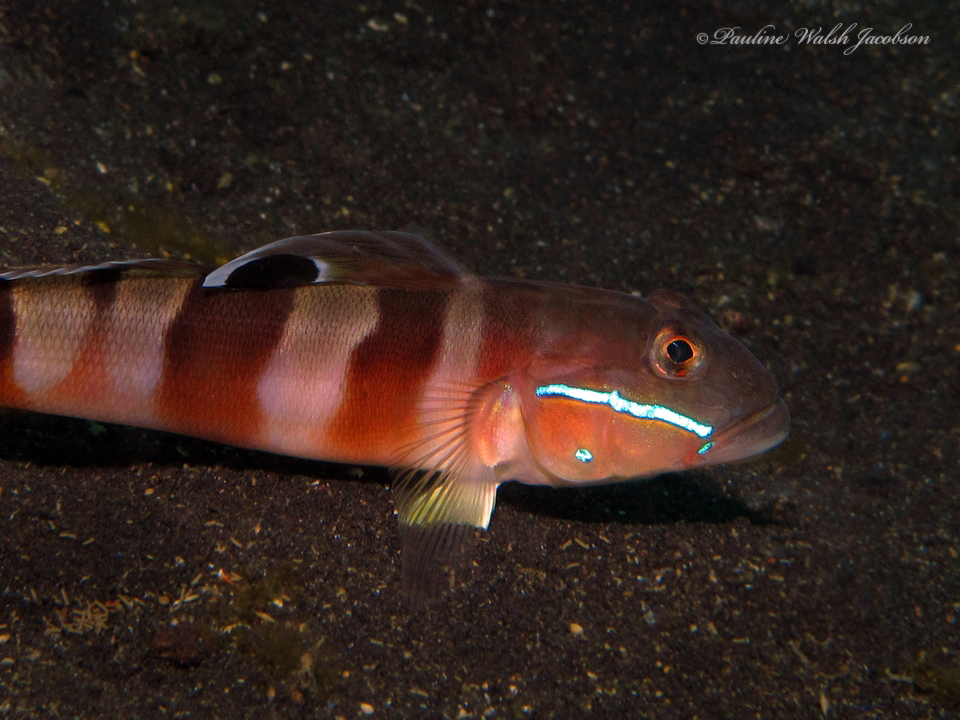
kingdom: Animalia
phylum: Chordata
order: Perciformes
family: Gobiidae
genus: Valenciennea
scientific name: Valenciennea wardii
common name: Broad-barred sleeper-goby
